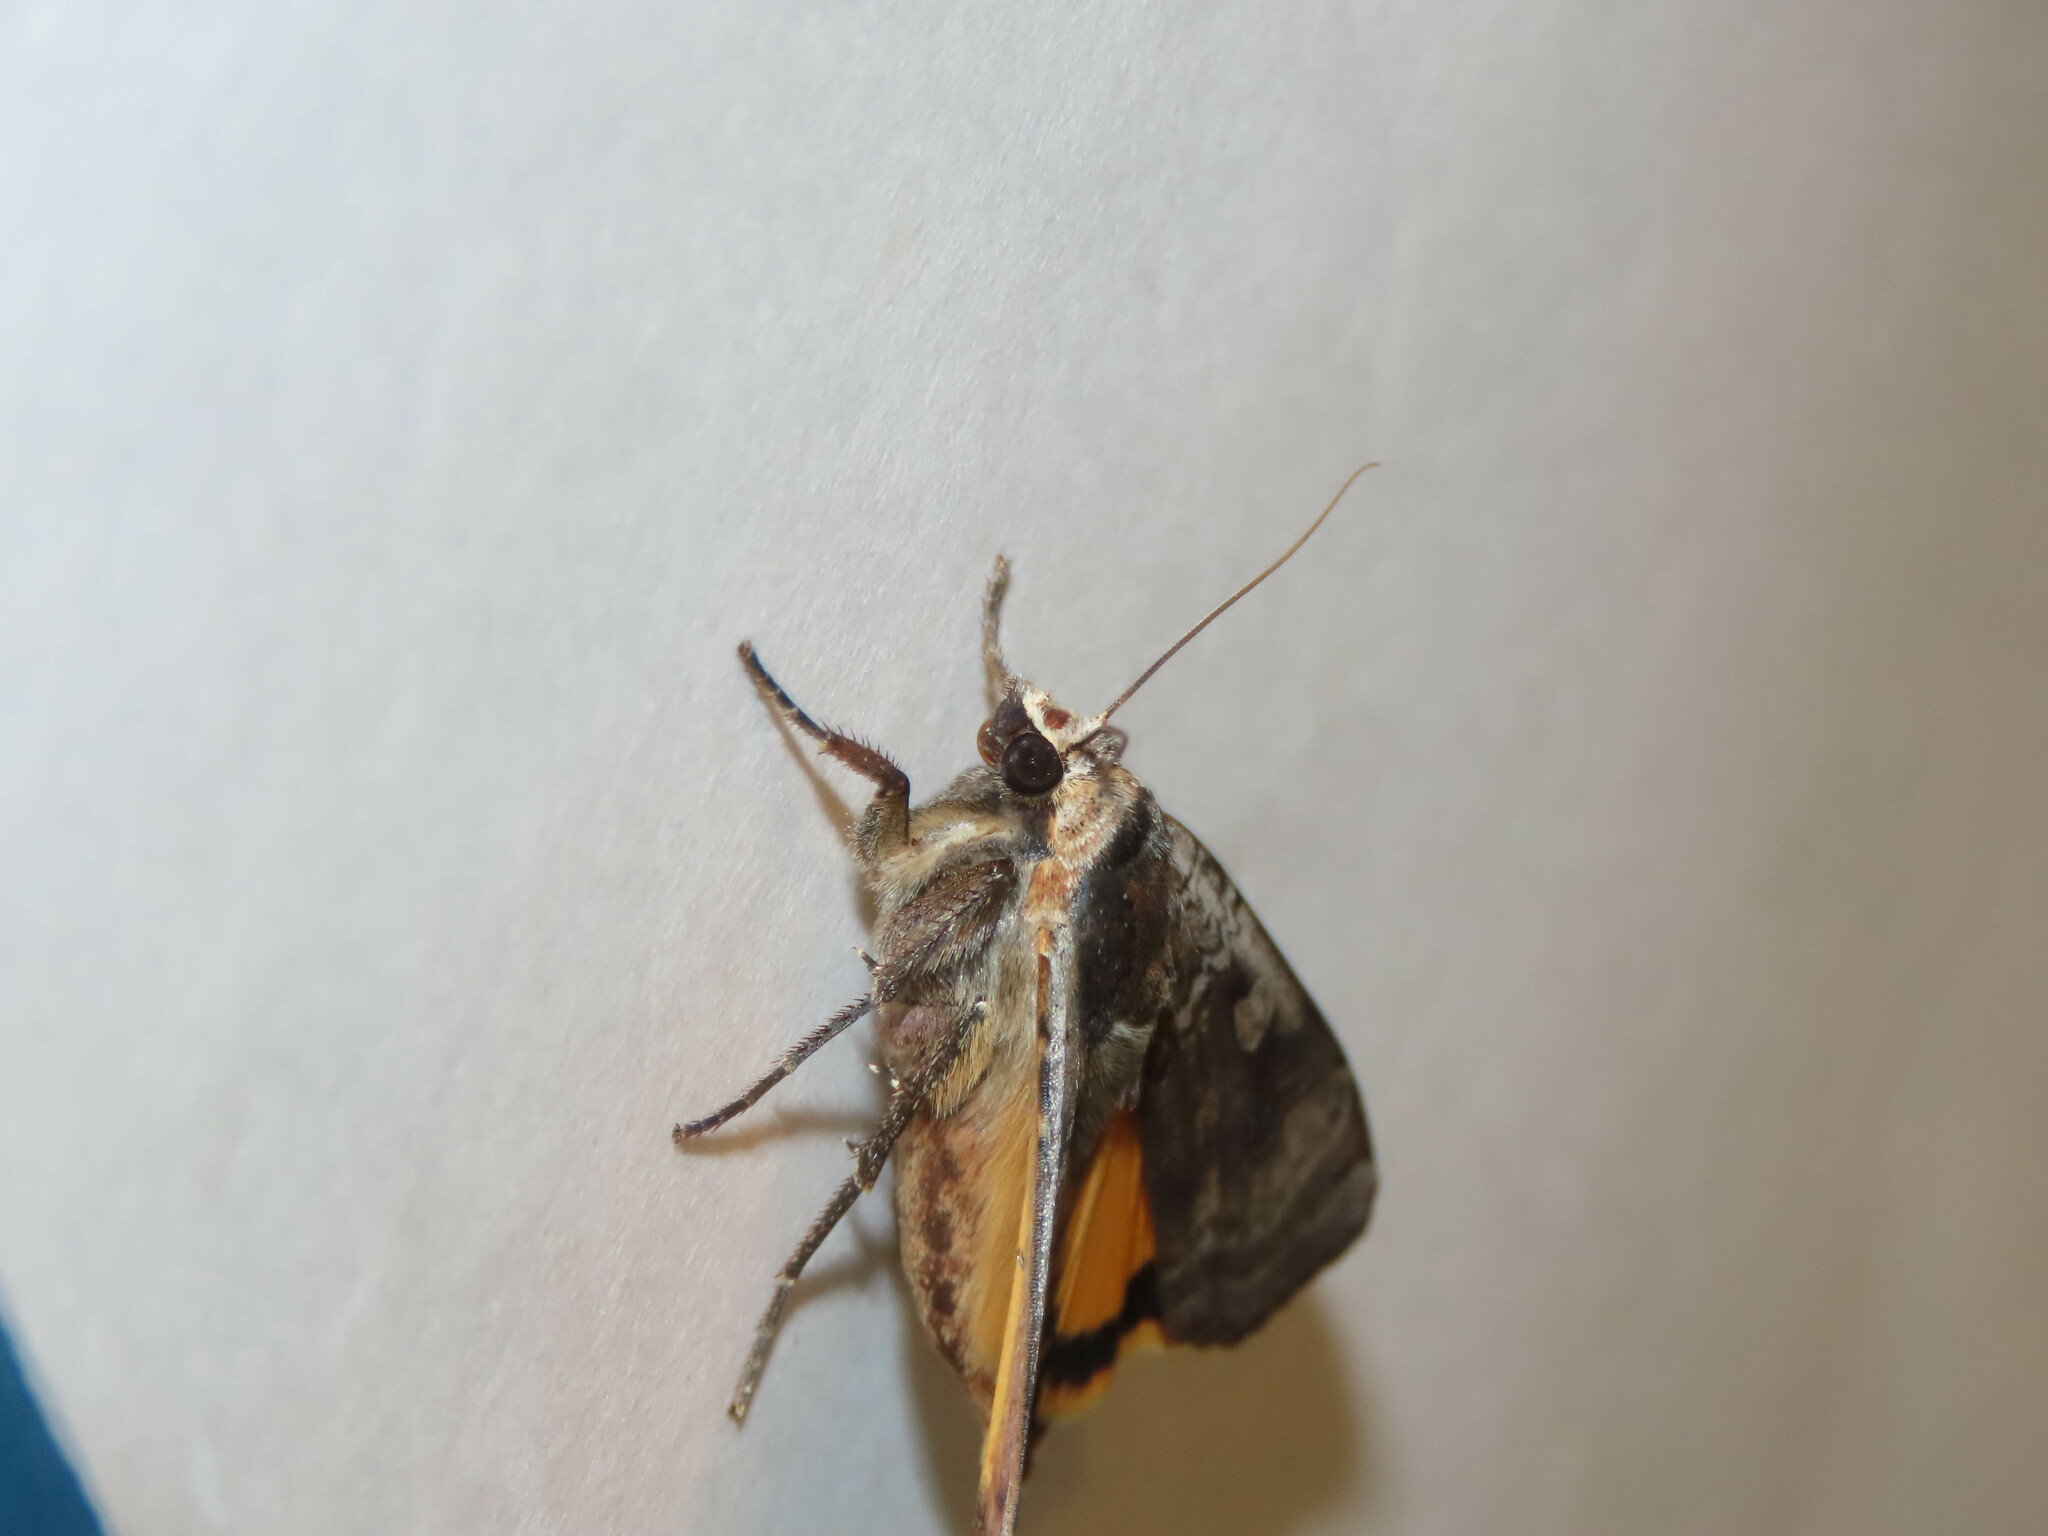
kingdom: Animalia
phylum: Arthropoda
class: Insecta
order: Lepidoptera
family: Noctuidae
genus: Noctua
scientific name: Noctua pronuba
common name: Large yellow underwing
